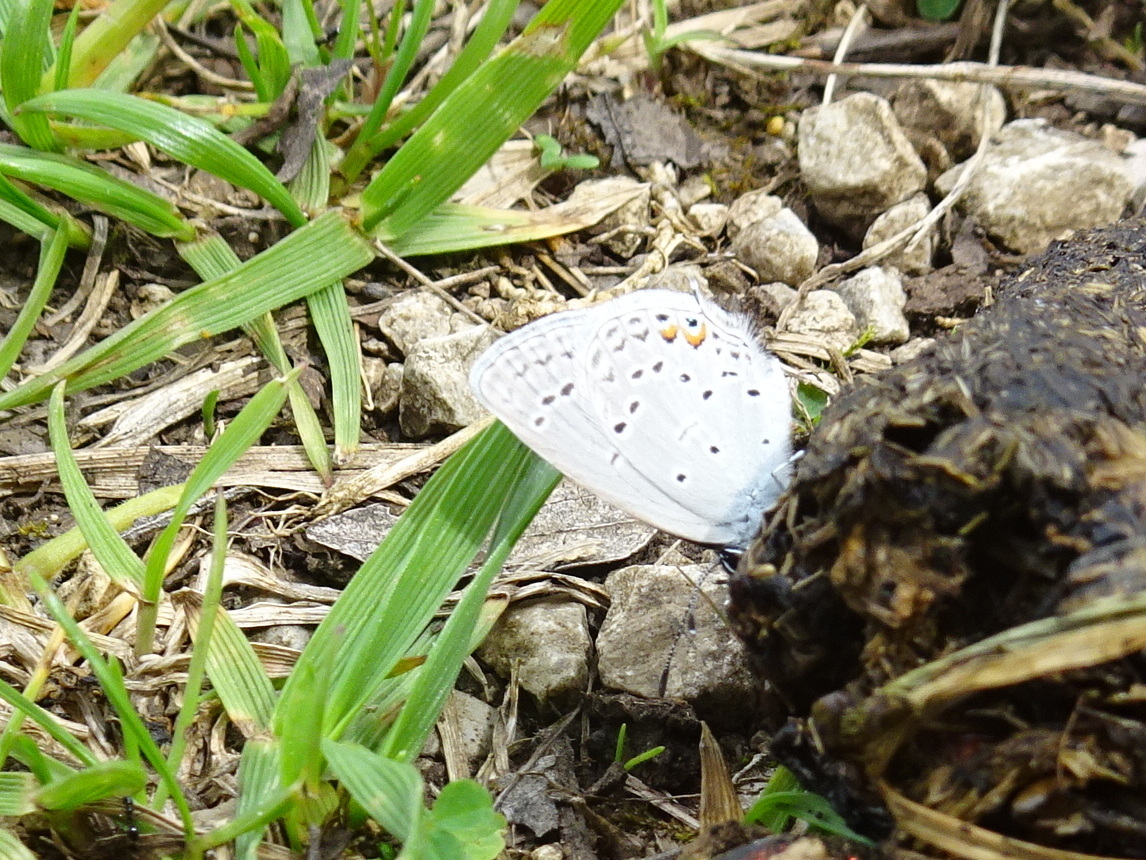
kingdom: Animalia
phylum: Arthropoda
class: Insecta
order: Lepidoptera
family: Lycaenidae
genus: Elkalyce
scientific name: Elkalyce comyntas
